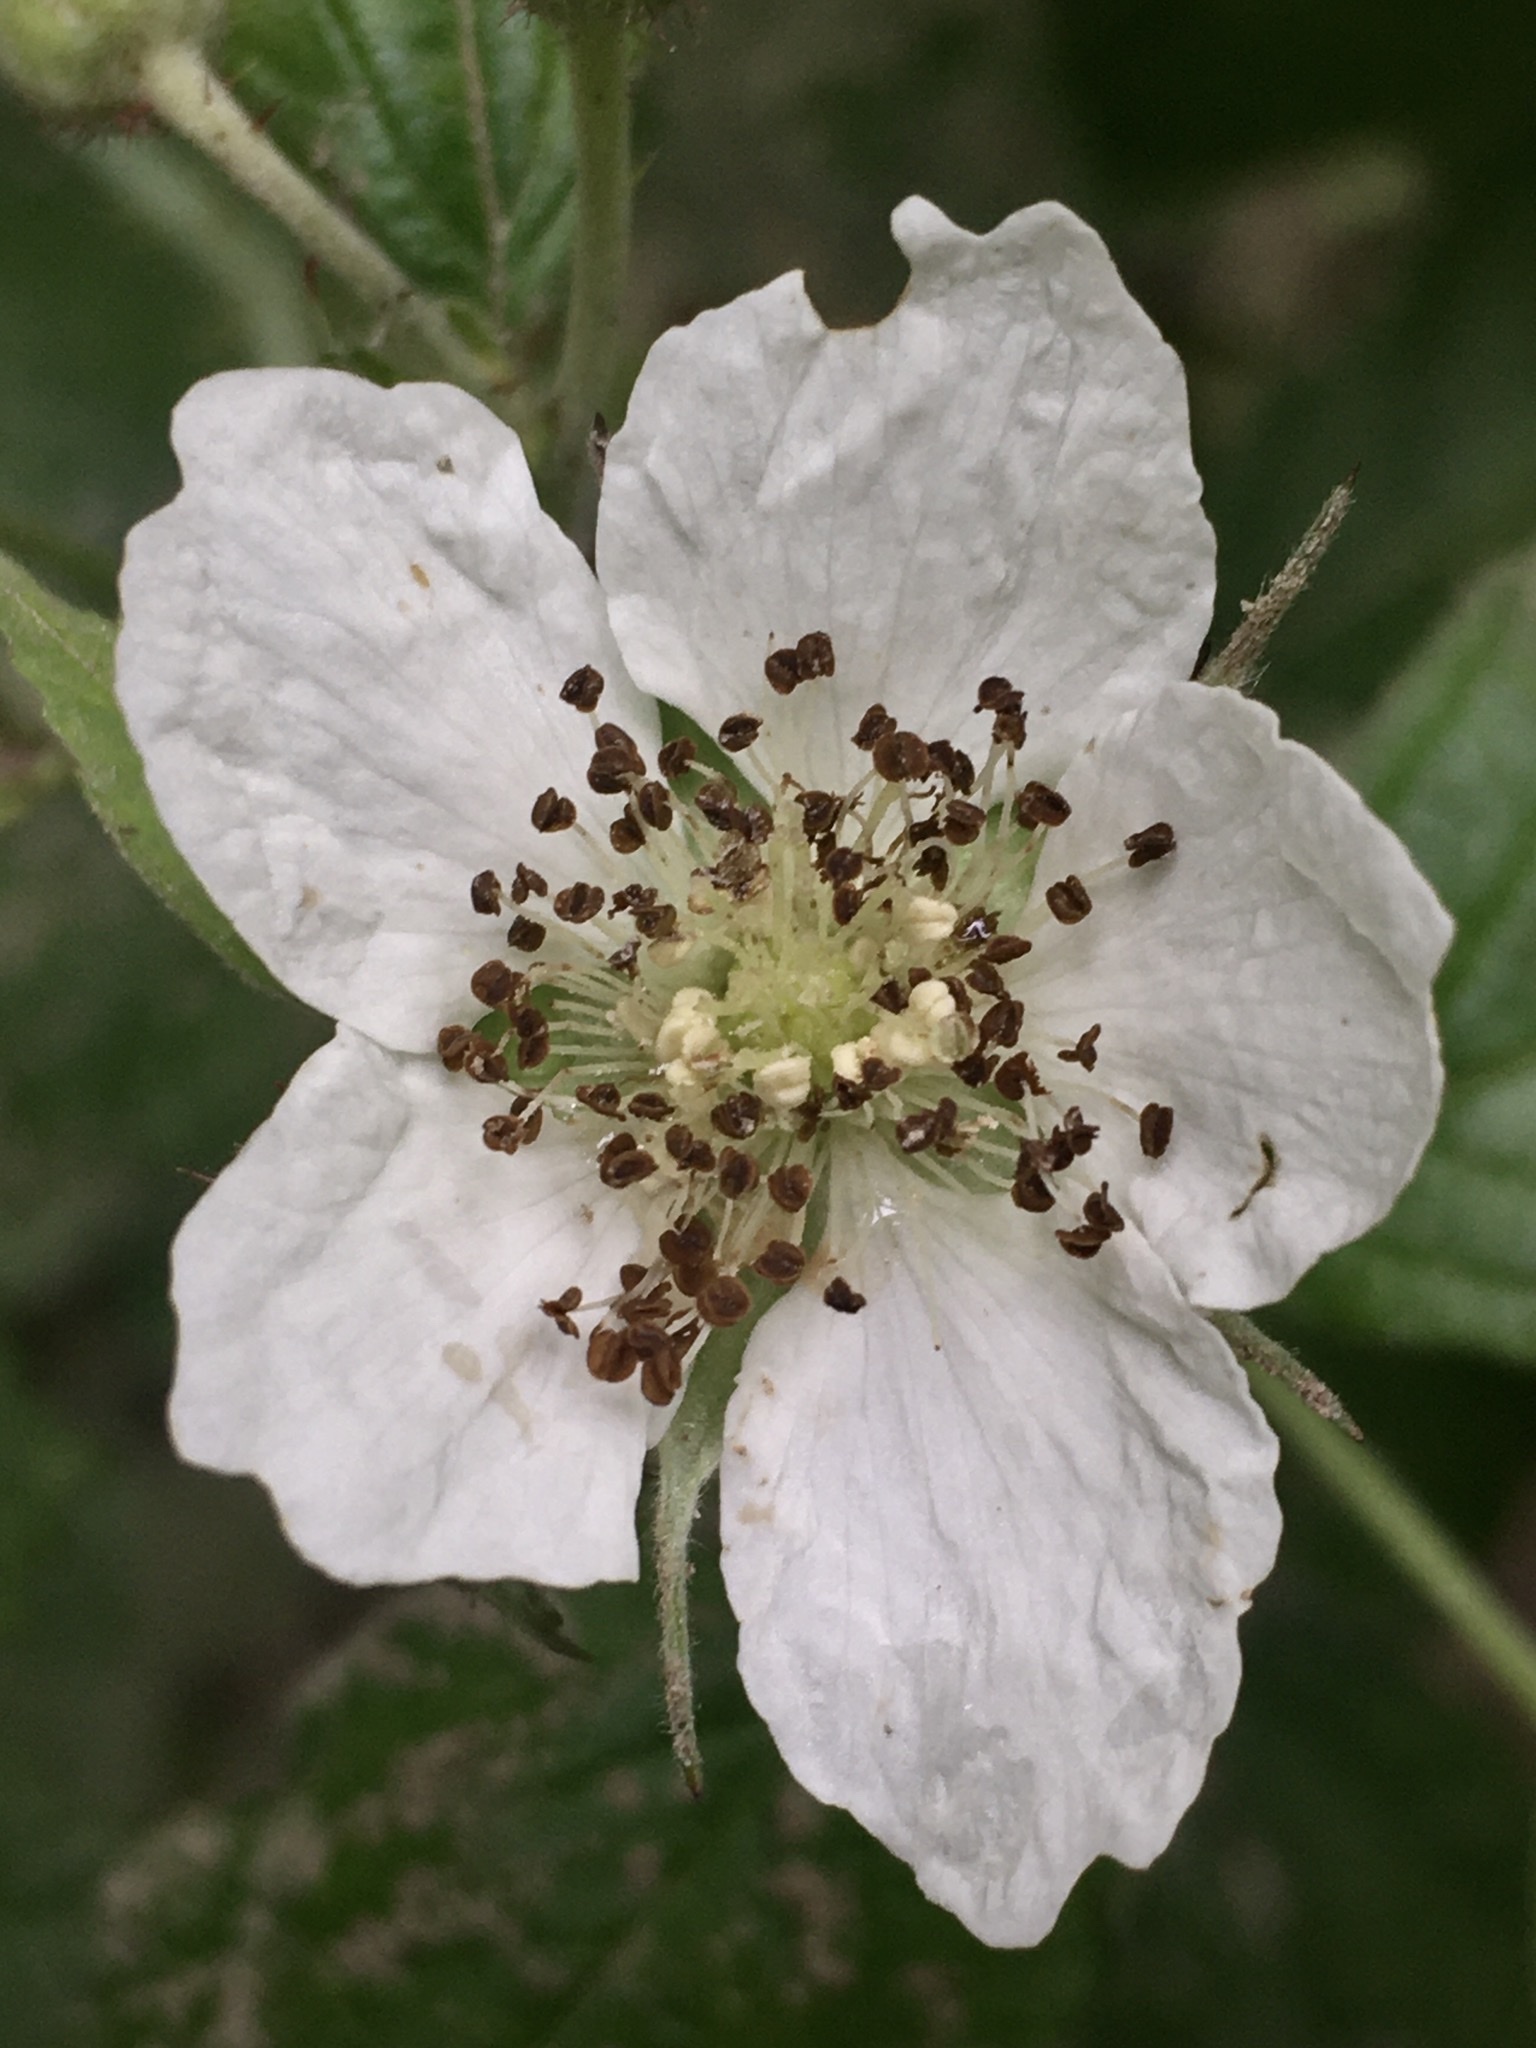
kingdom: Plantae
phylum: Tracheophyta
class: Magnoliopsida
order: Rosales
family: Rosaceae
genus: Rubus
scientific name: Rubus caesius
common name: Dewberry
